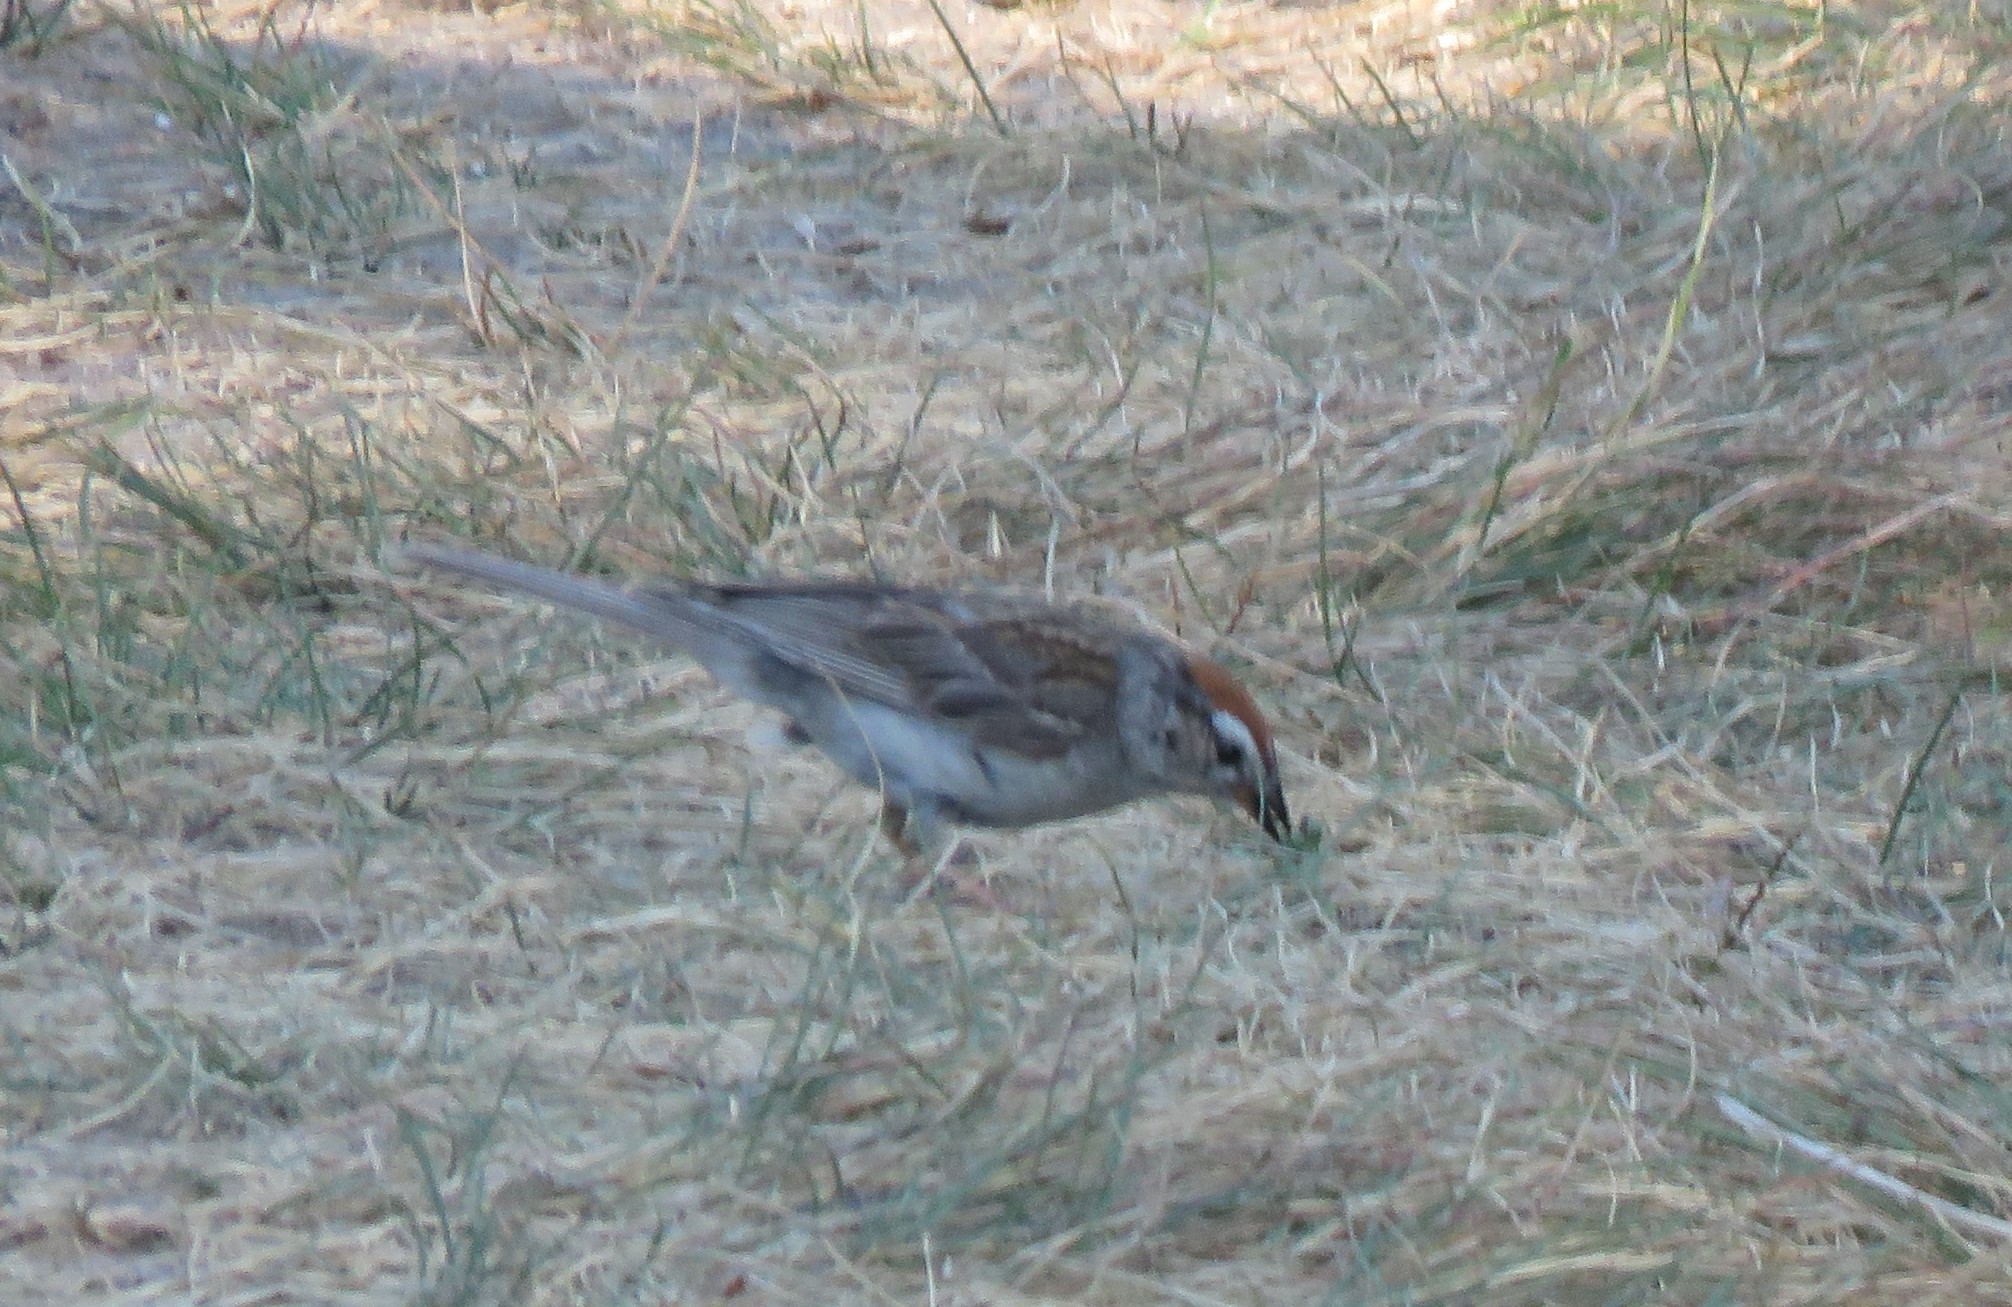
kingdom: Animalia
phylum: Chordata
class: Aves
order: Passeriformes
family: Passerellidae
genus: Spizella
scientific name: Spizella passerina
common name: Chipping sparrow
